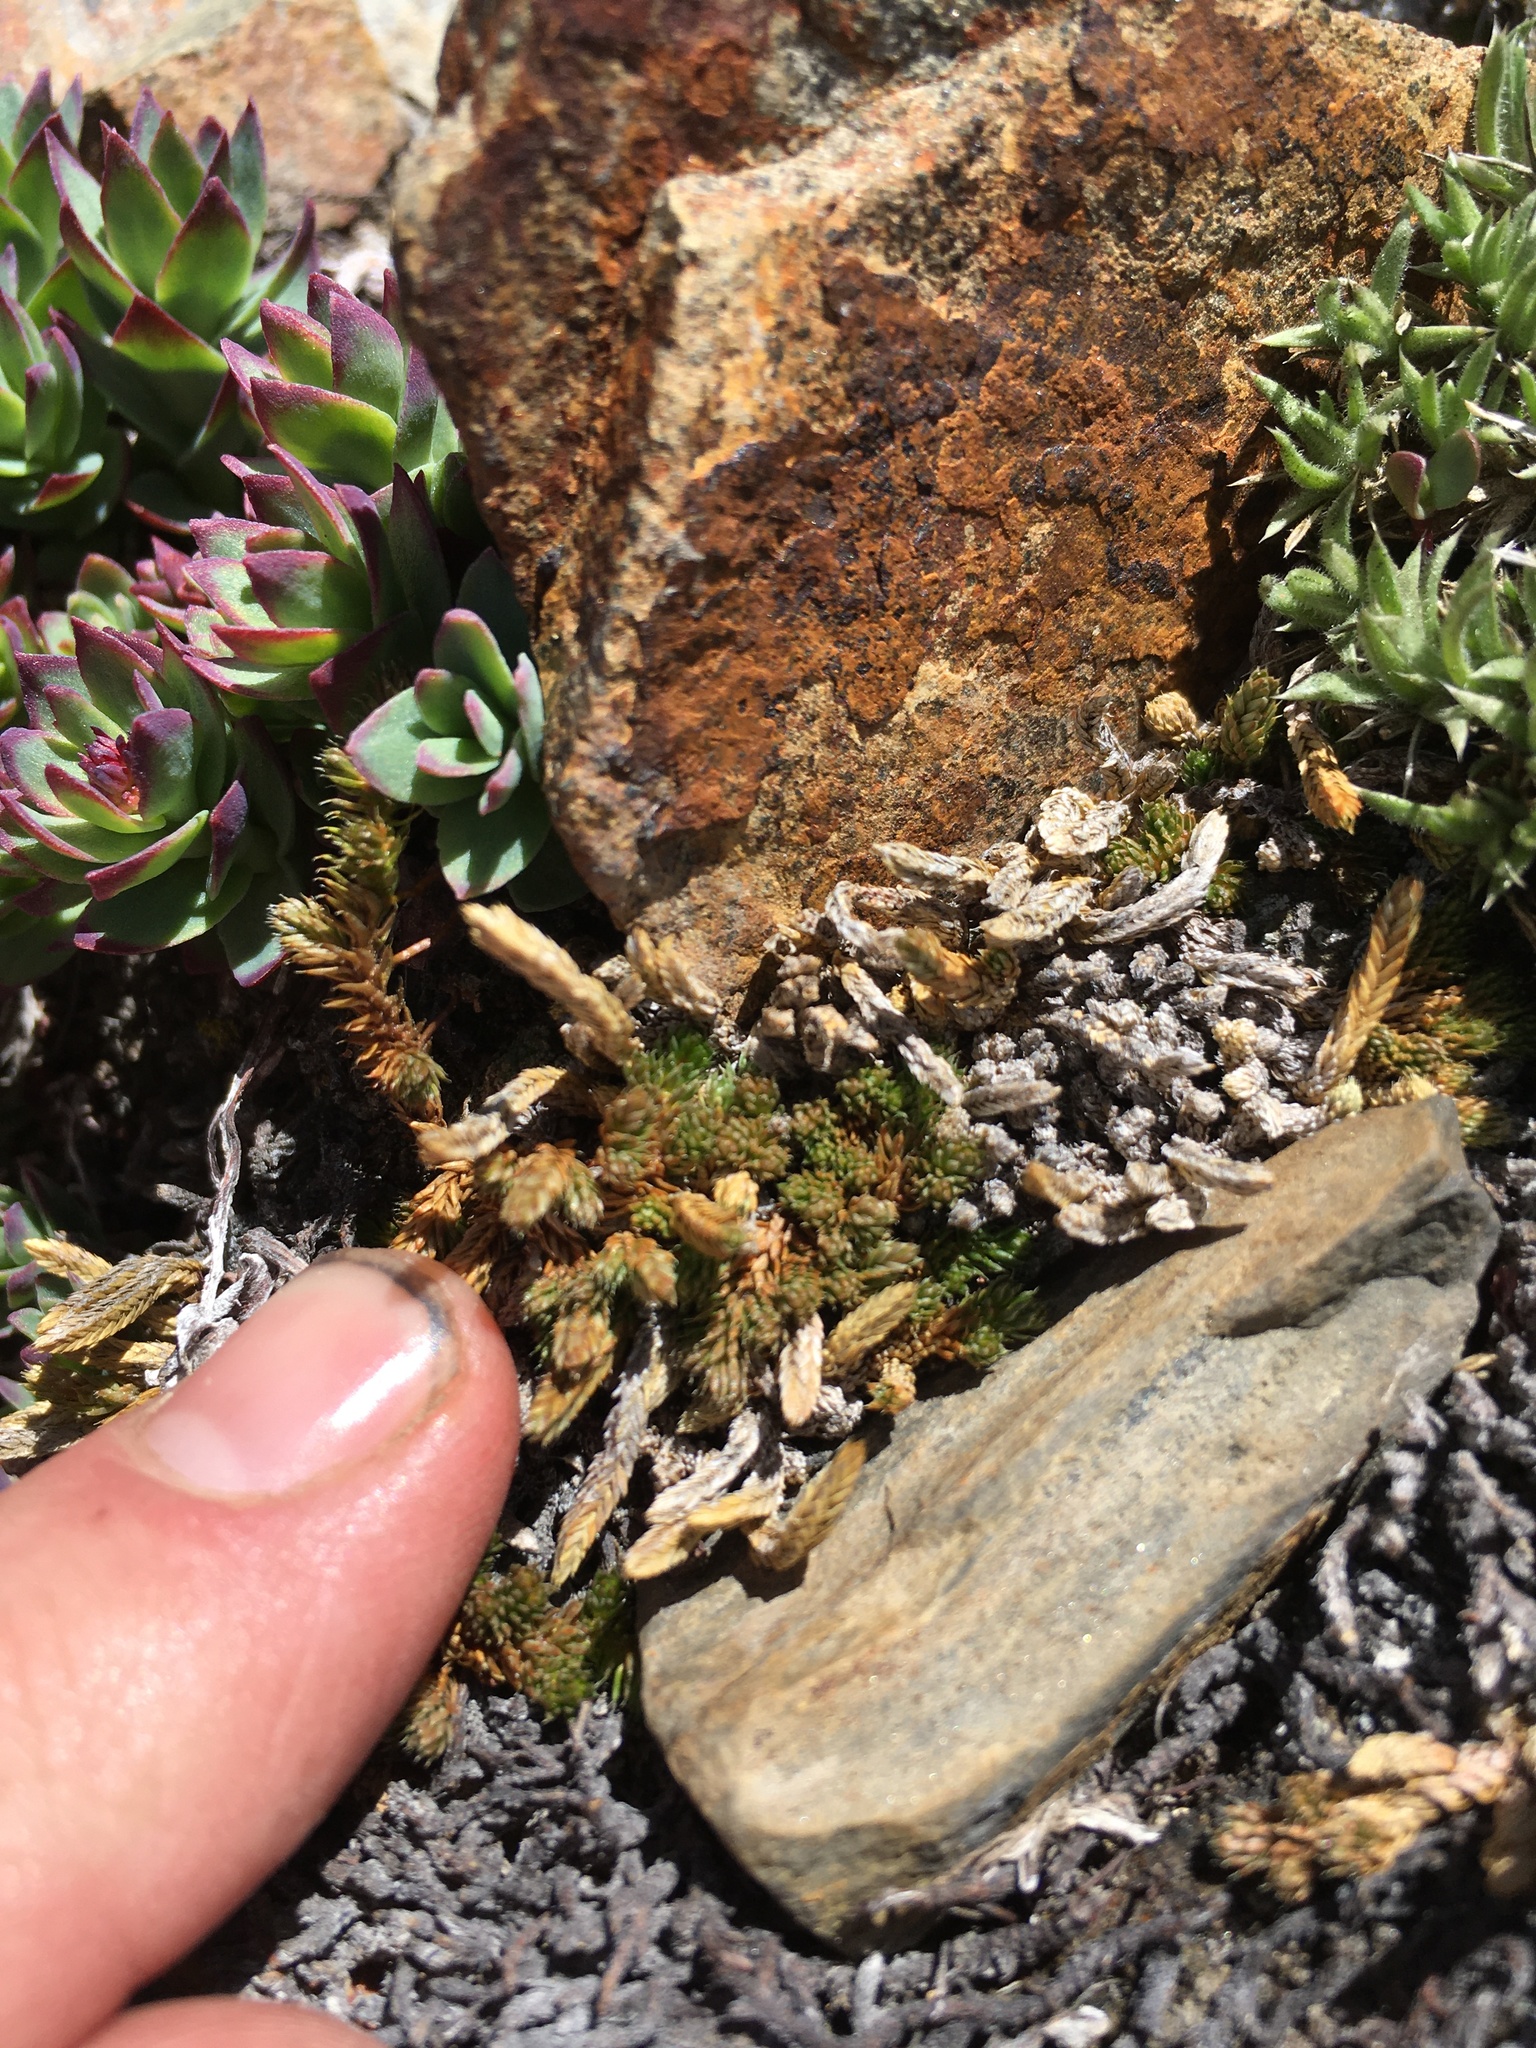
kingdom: Plantae
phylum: Tracheophyta
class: Lycopodiopsida
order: Selaginellales
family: Selaginellaceae
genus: Selaginella
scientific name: Selaginella watsonii
